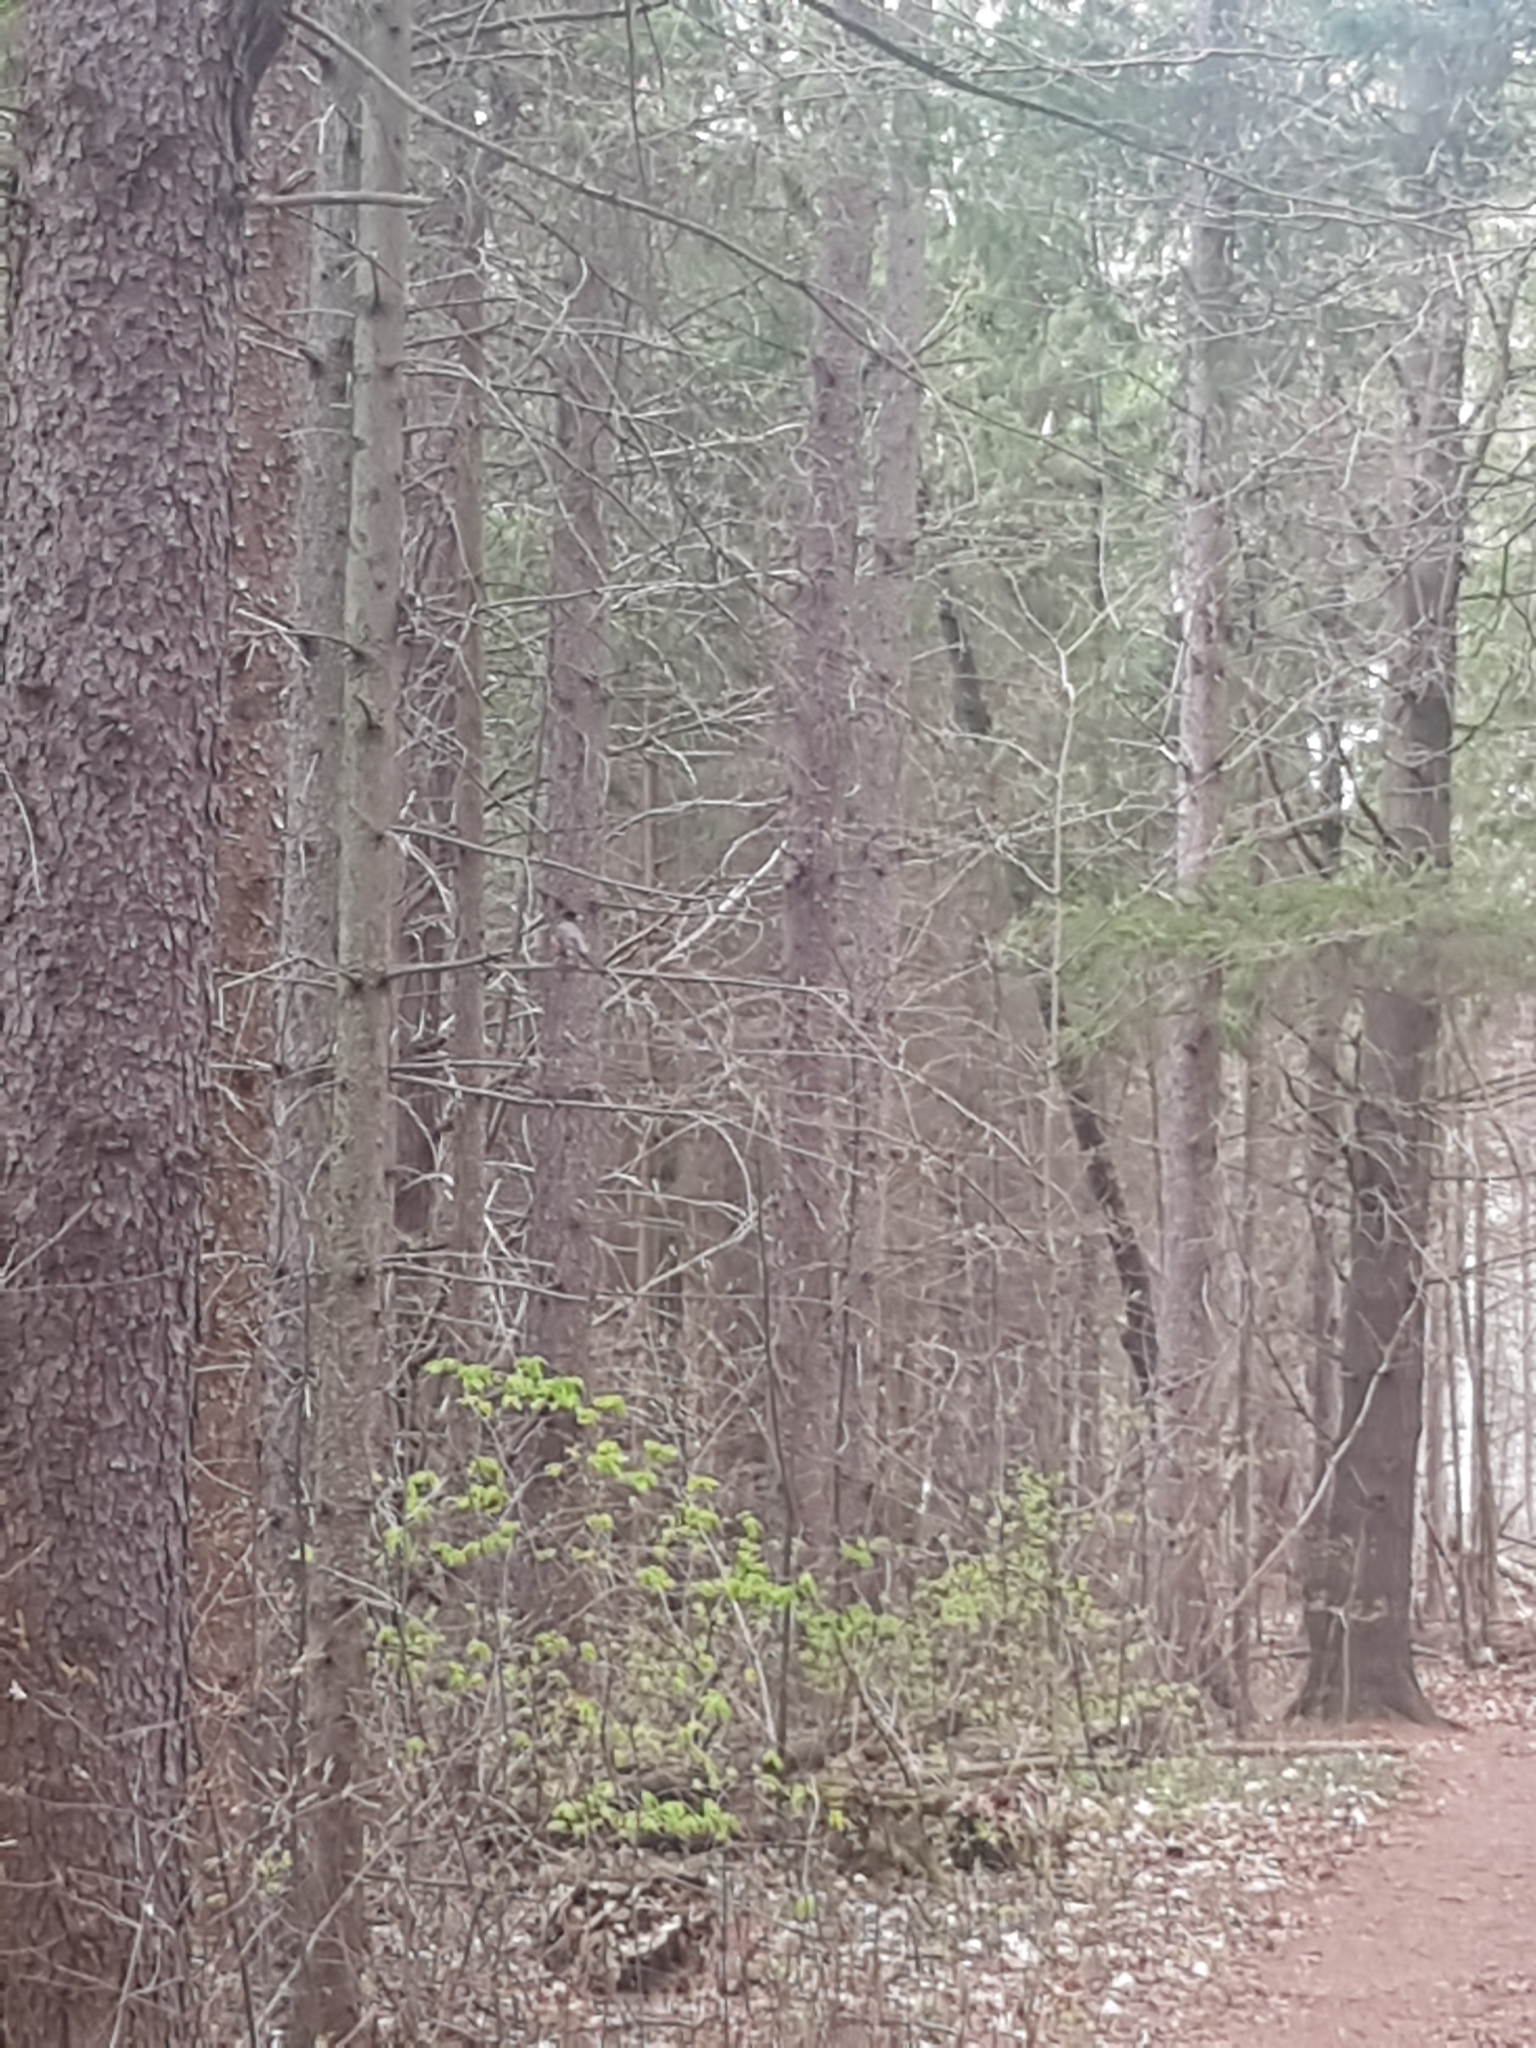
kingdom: Animalia
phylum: Chordata
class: Aves
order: Passeriformes
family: Turdidae
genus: Turdus
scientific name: Turdus migratorius
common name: American robin
